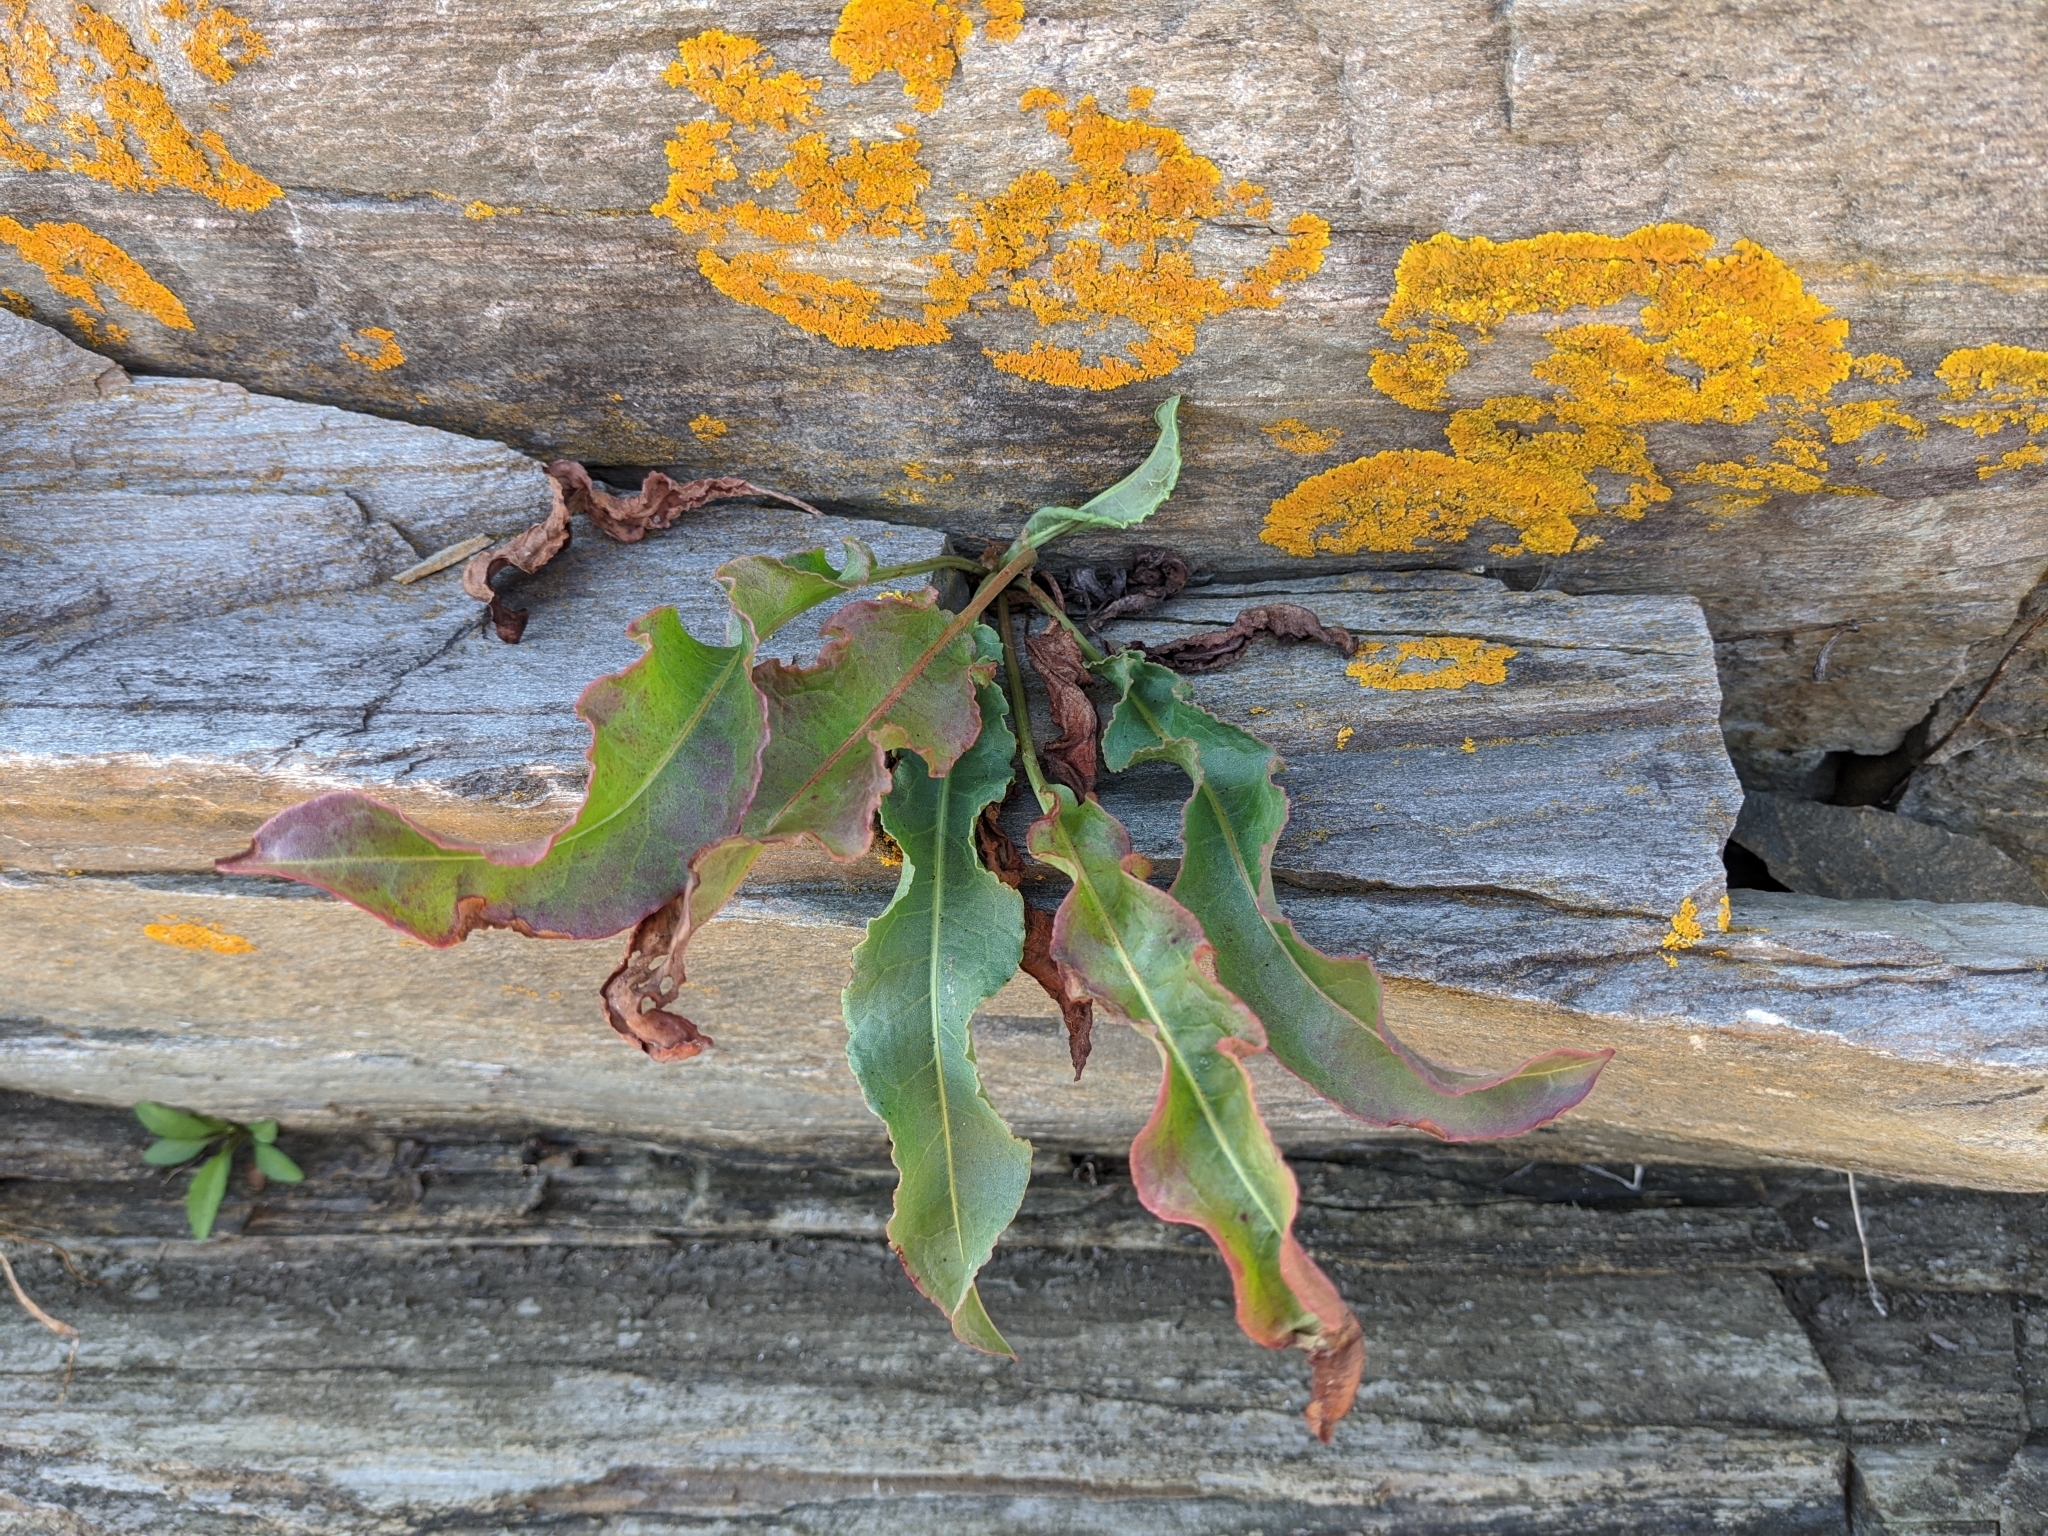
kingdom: Plantae
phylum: Tracheophyta
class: Magnoliopsida
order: Caryophyllales
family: Polygonaceae
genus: Rumex
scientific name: Rumex crispus
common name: Curled dock
